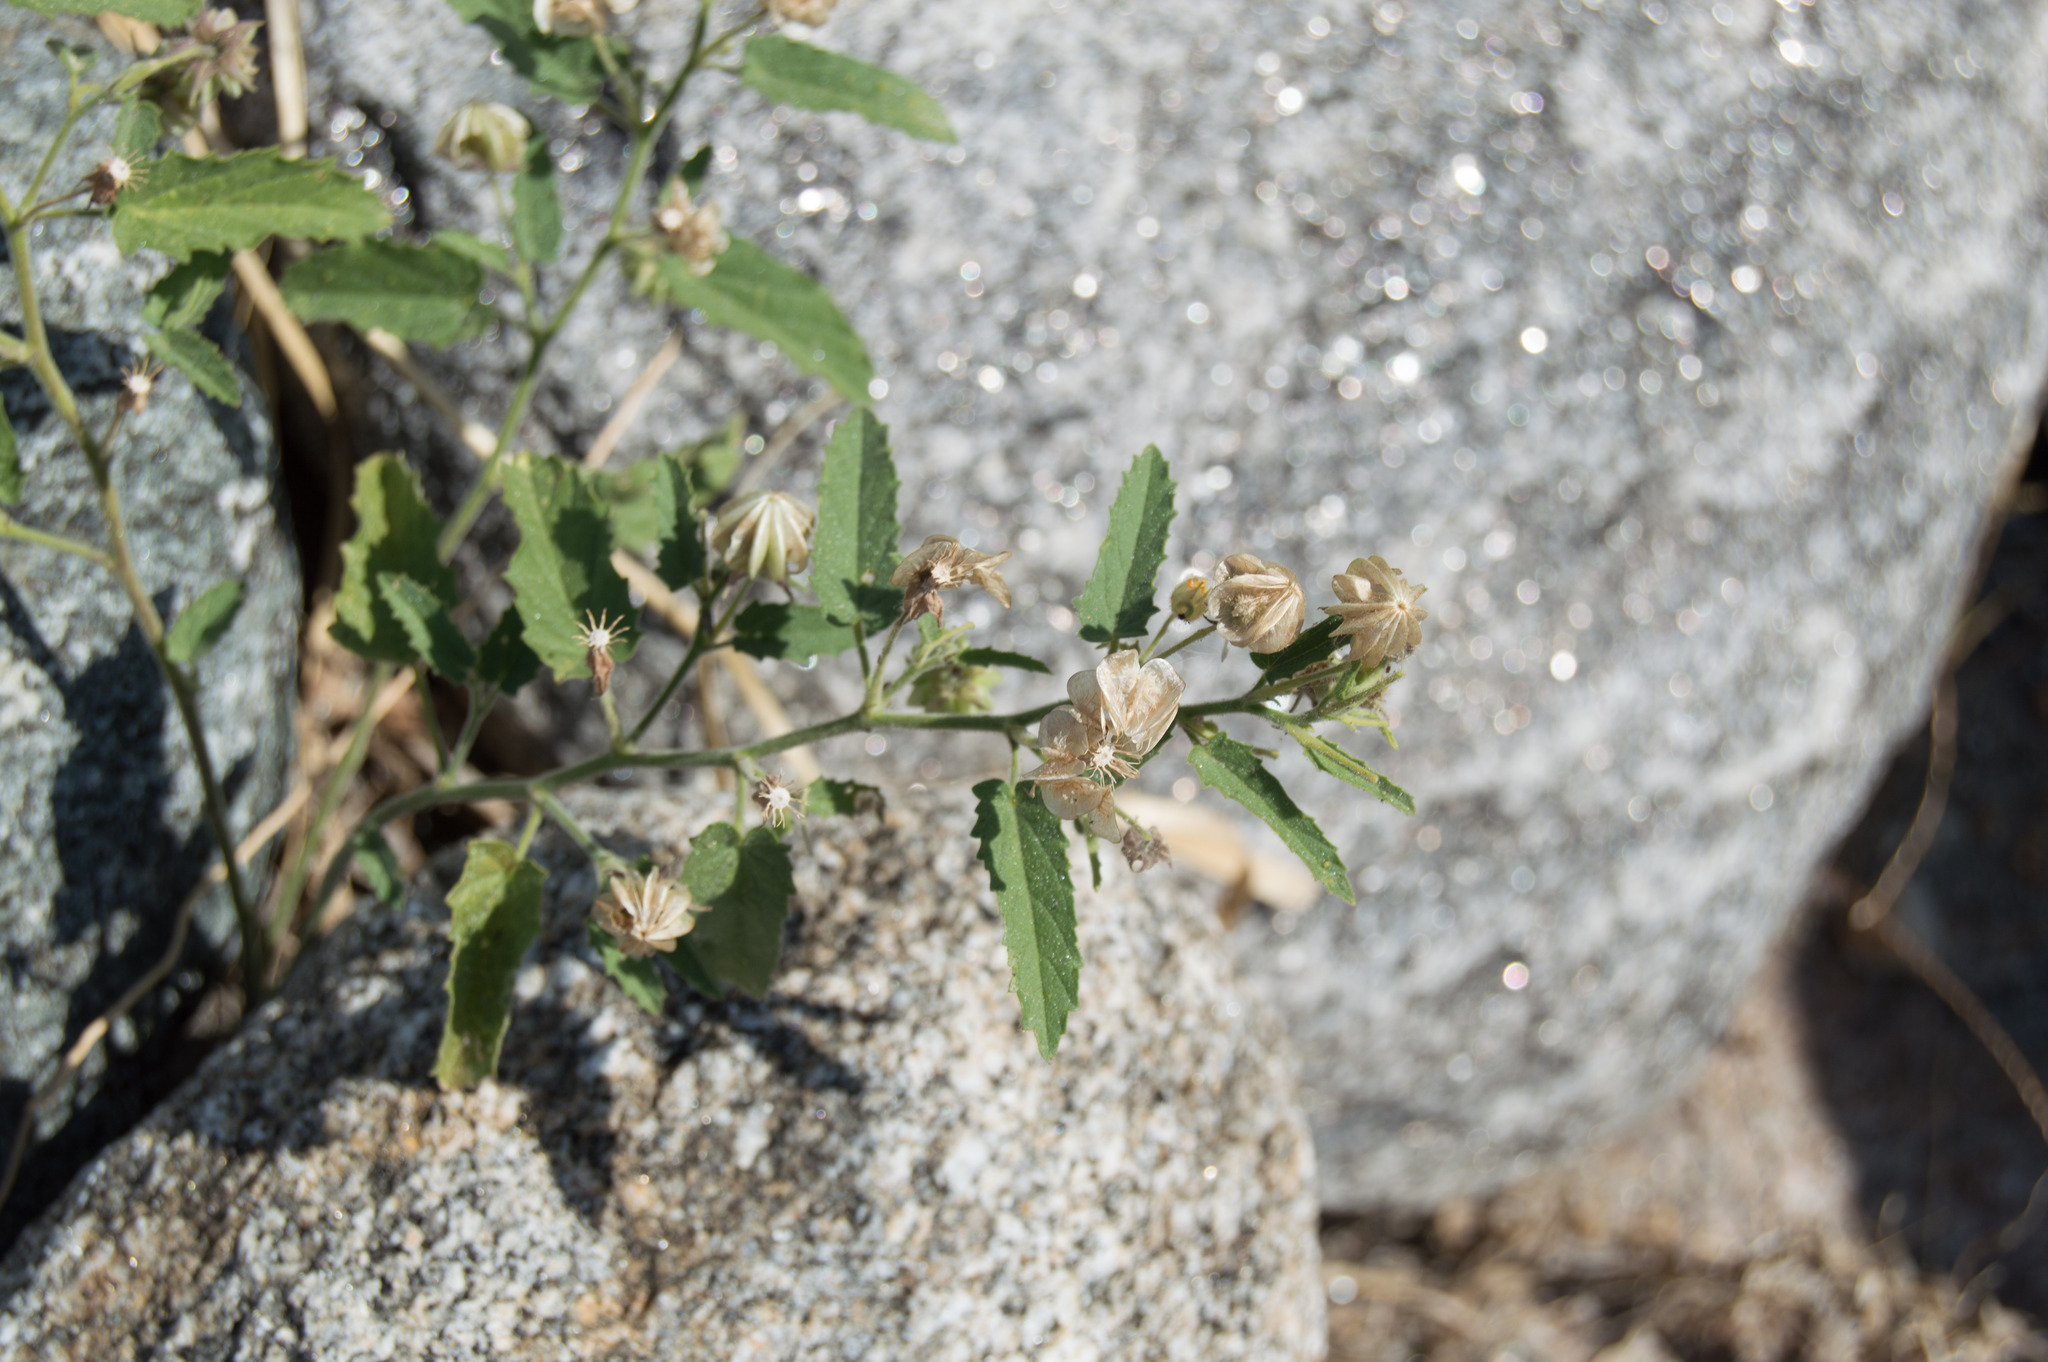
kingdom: Plantae
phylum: Tracheophyta
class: Magnoliopsida
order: Malvales
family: Malvaceae
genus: Gaya
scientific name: Gaya parviflora
